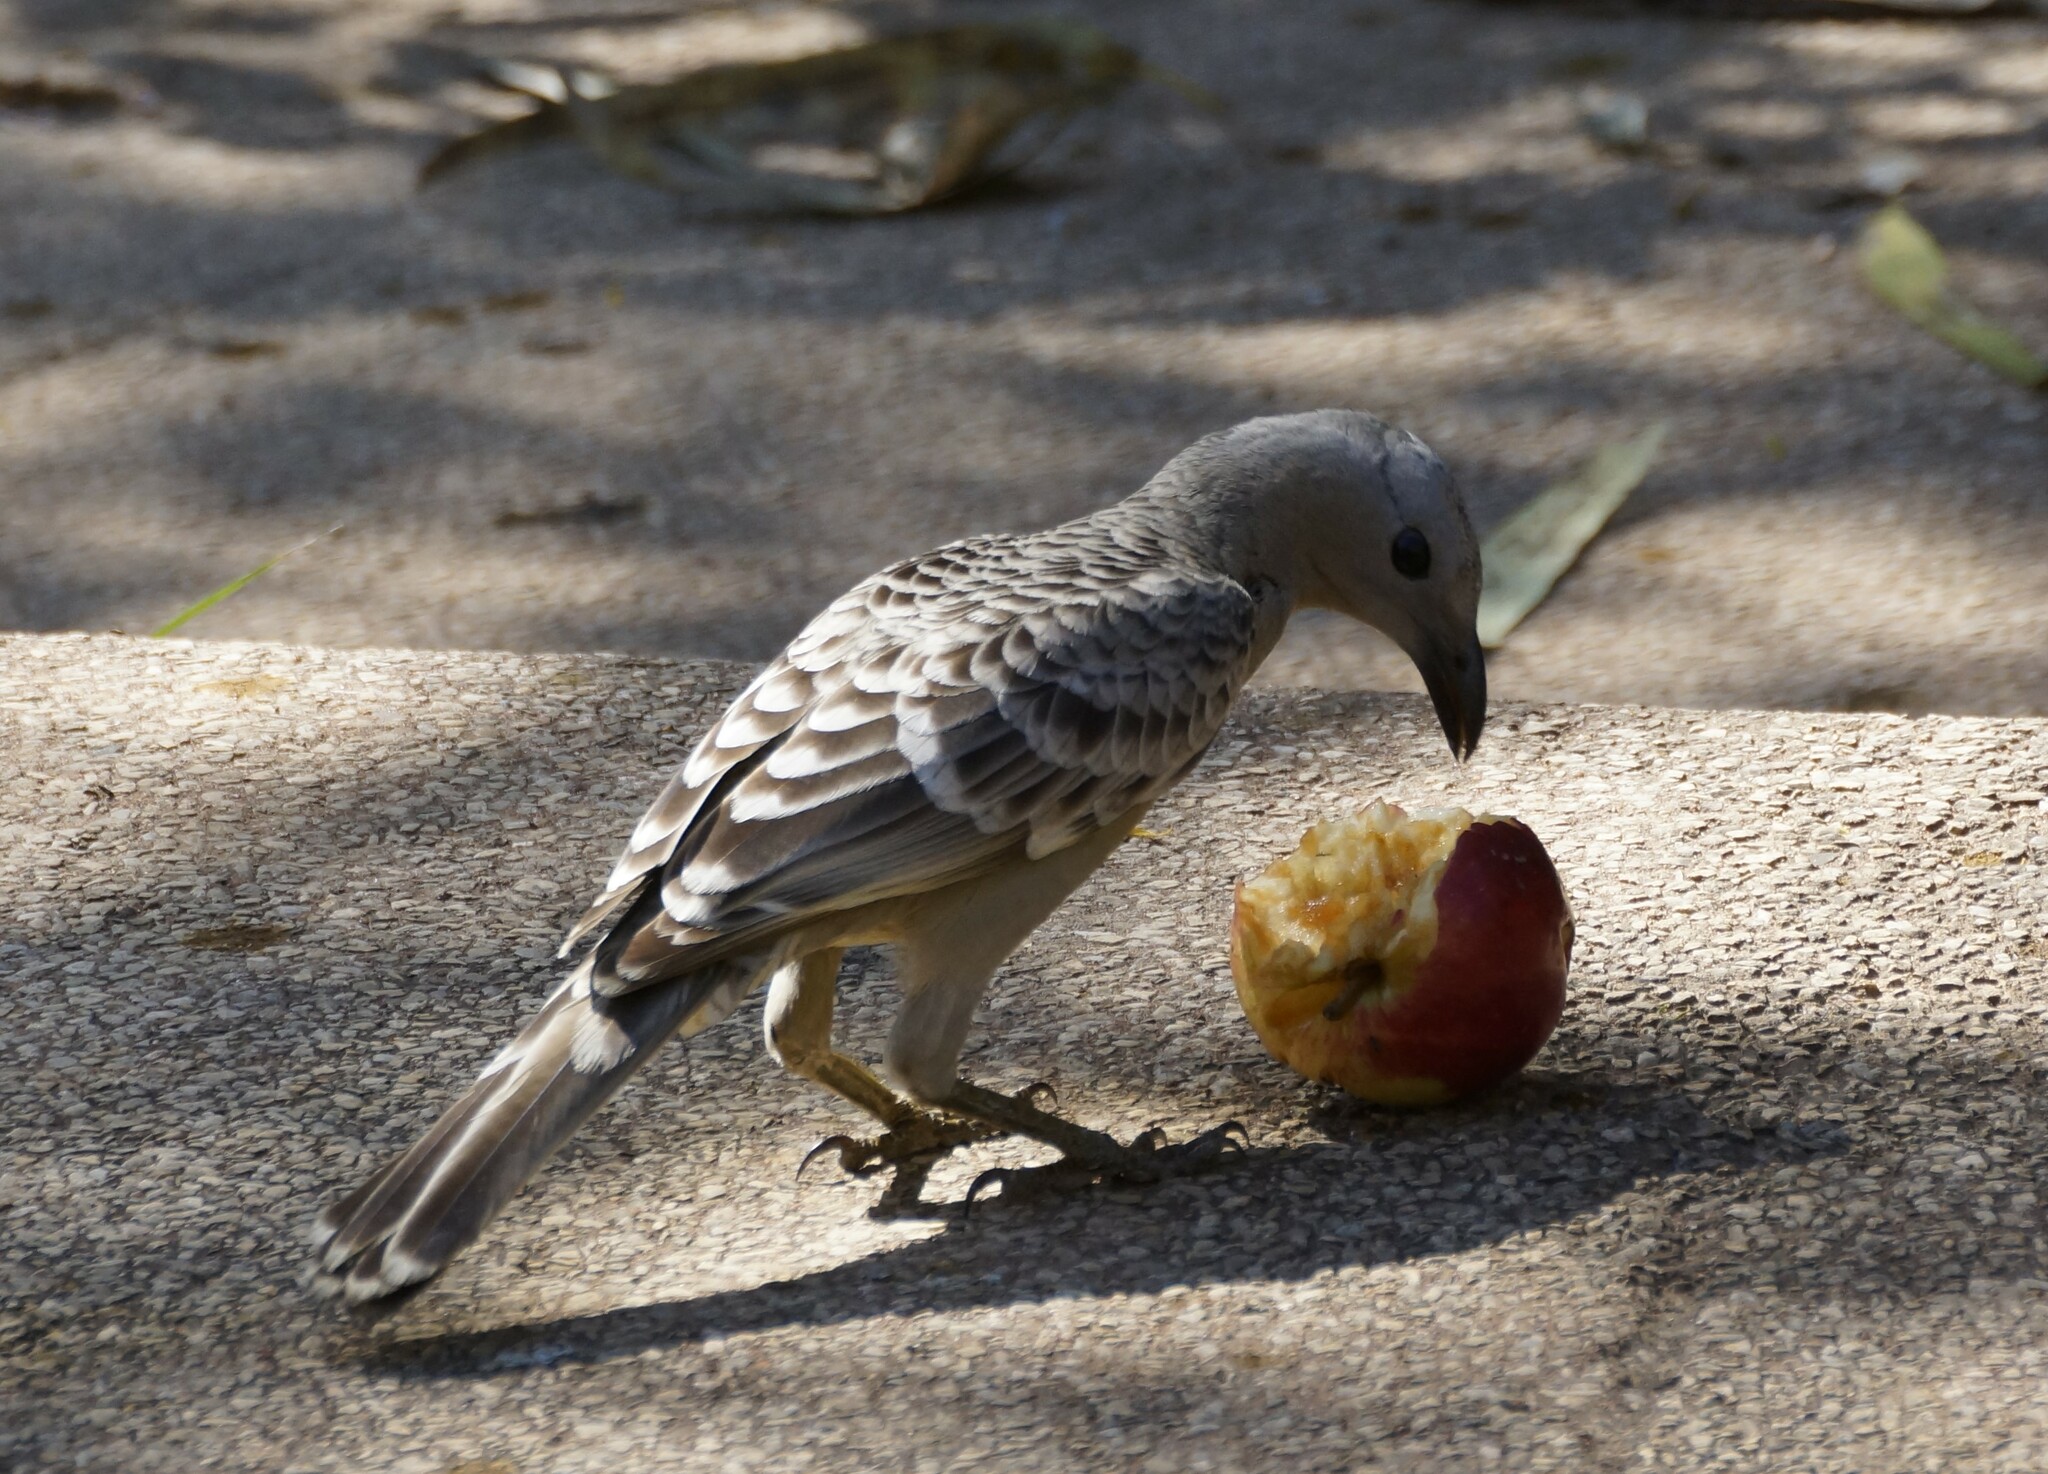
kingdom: Animalia
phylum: Chordata
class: Aves
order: Passeriformes
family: Ptilonorhynchidae
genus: Chlamydera
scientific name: Chlamydera nuchalis
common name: Great bowerbird
